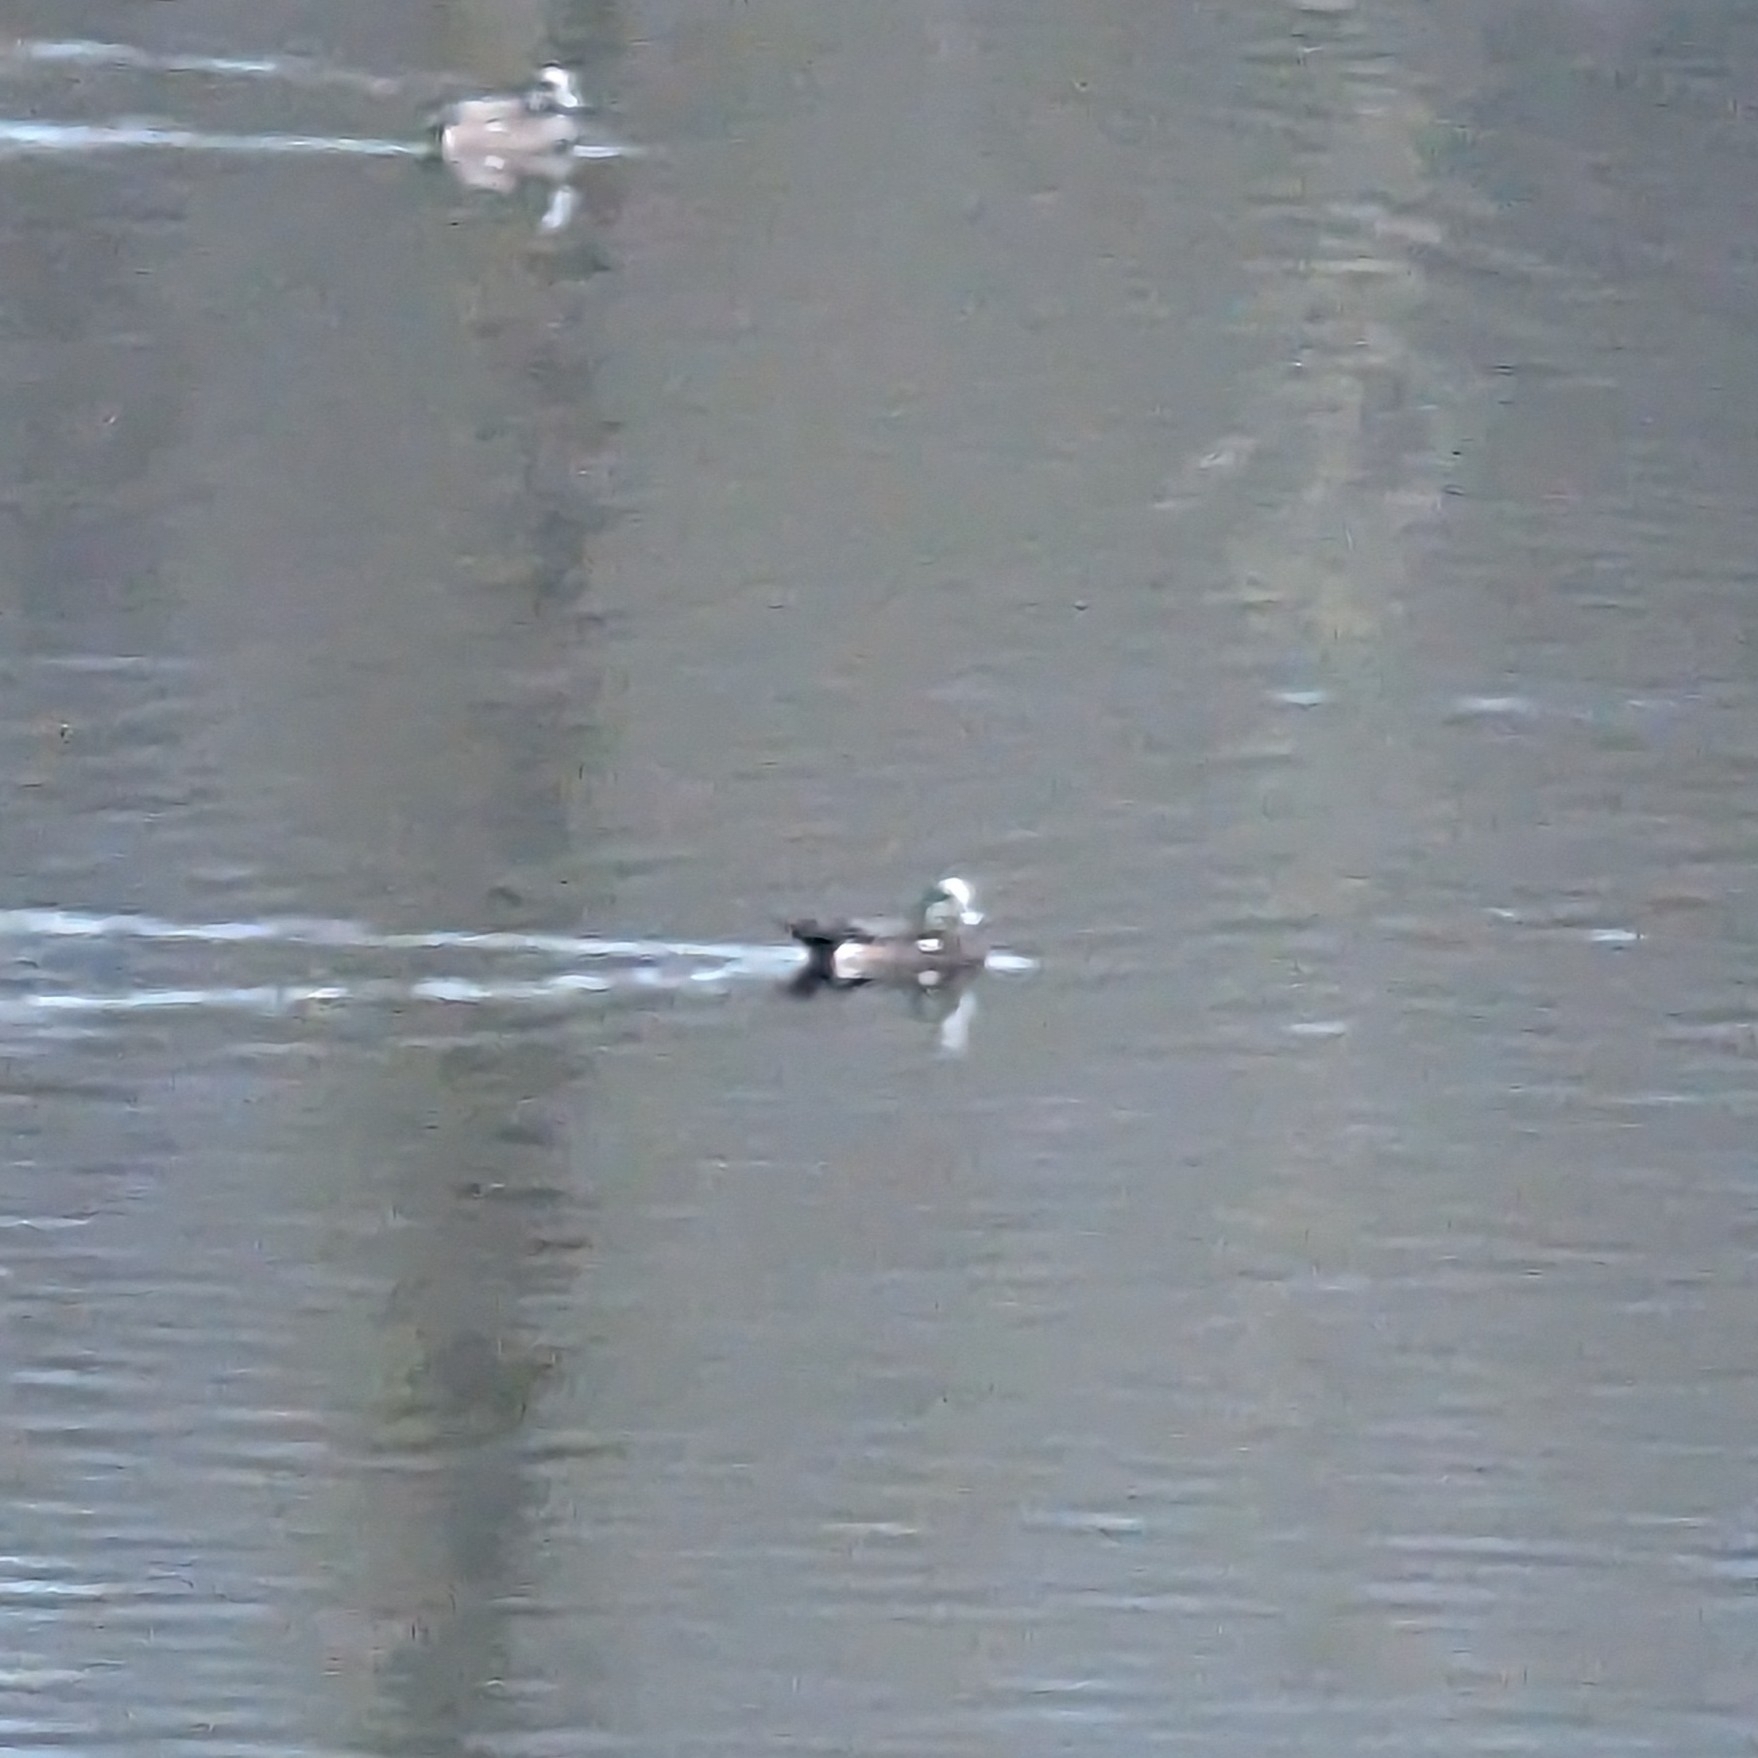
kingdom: Animalia
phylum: Chordata
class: Aves
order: Anseriformes
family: Anatidae
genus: Mareca
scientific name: Mareca americana
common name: American wigeon
